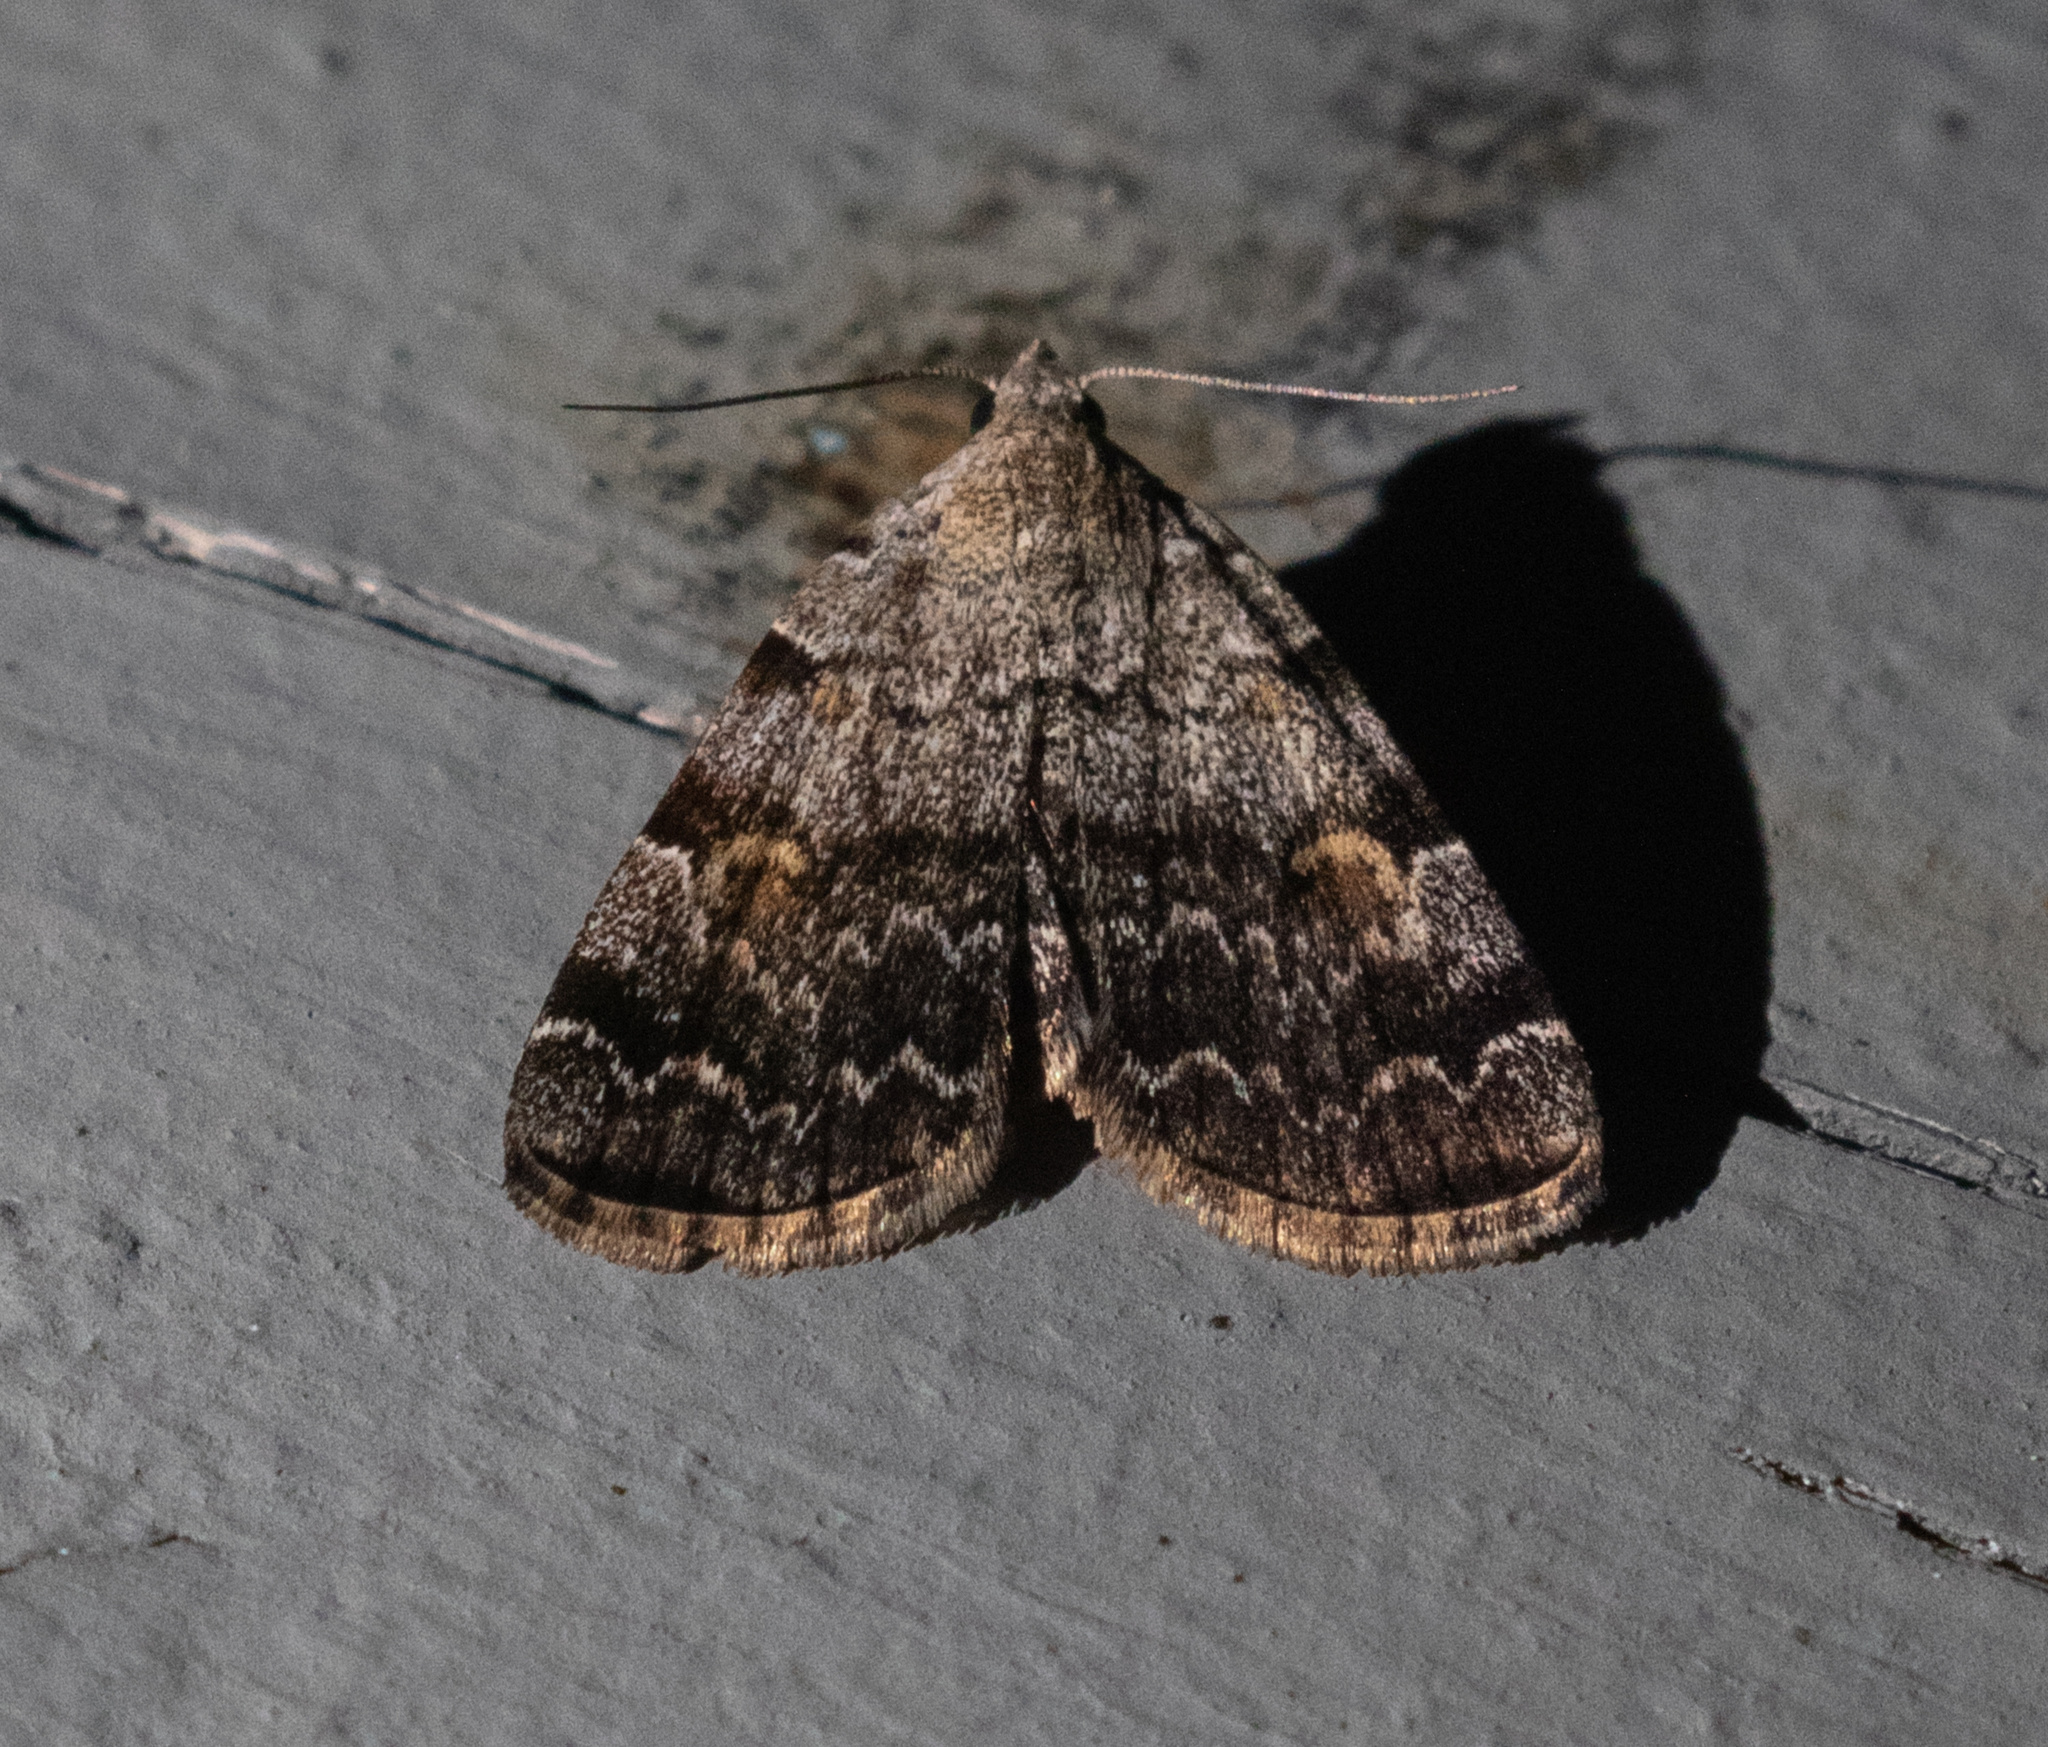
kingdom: Animalia
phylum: Arthropoda
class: Insecta
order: Lepidoptera
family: Erebidae
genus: Idia
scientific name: Idia americalis
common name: American idia moth
